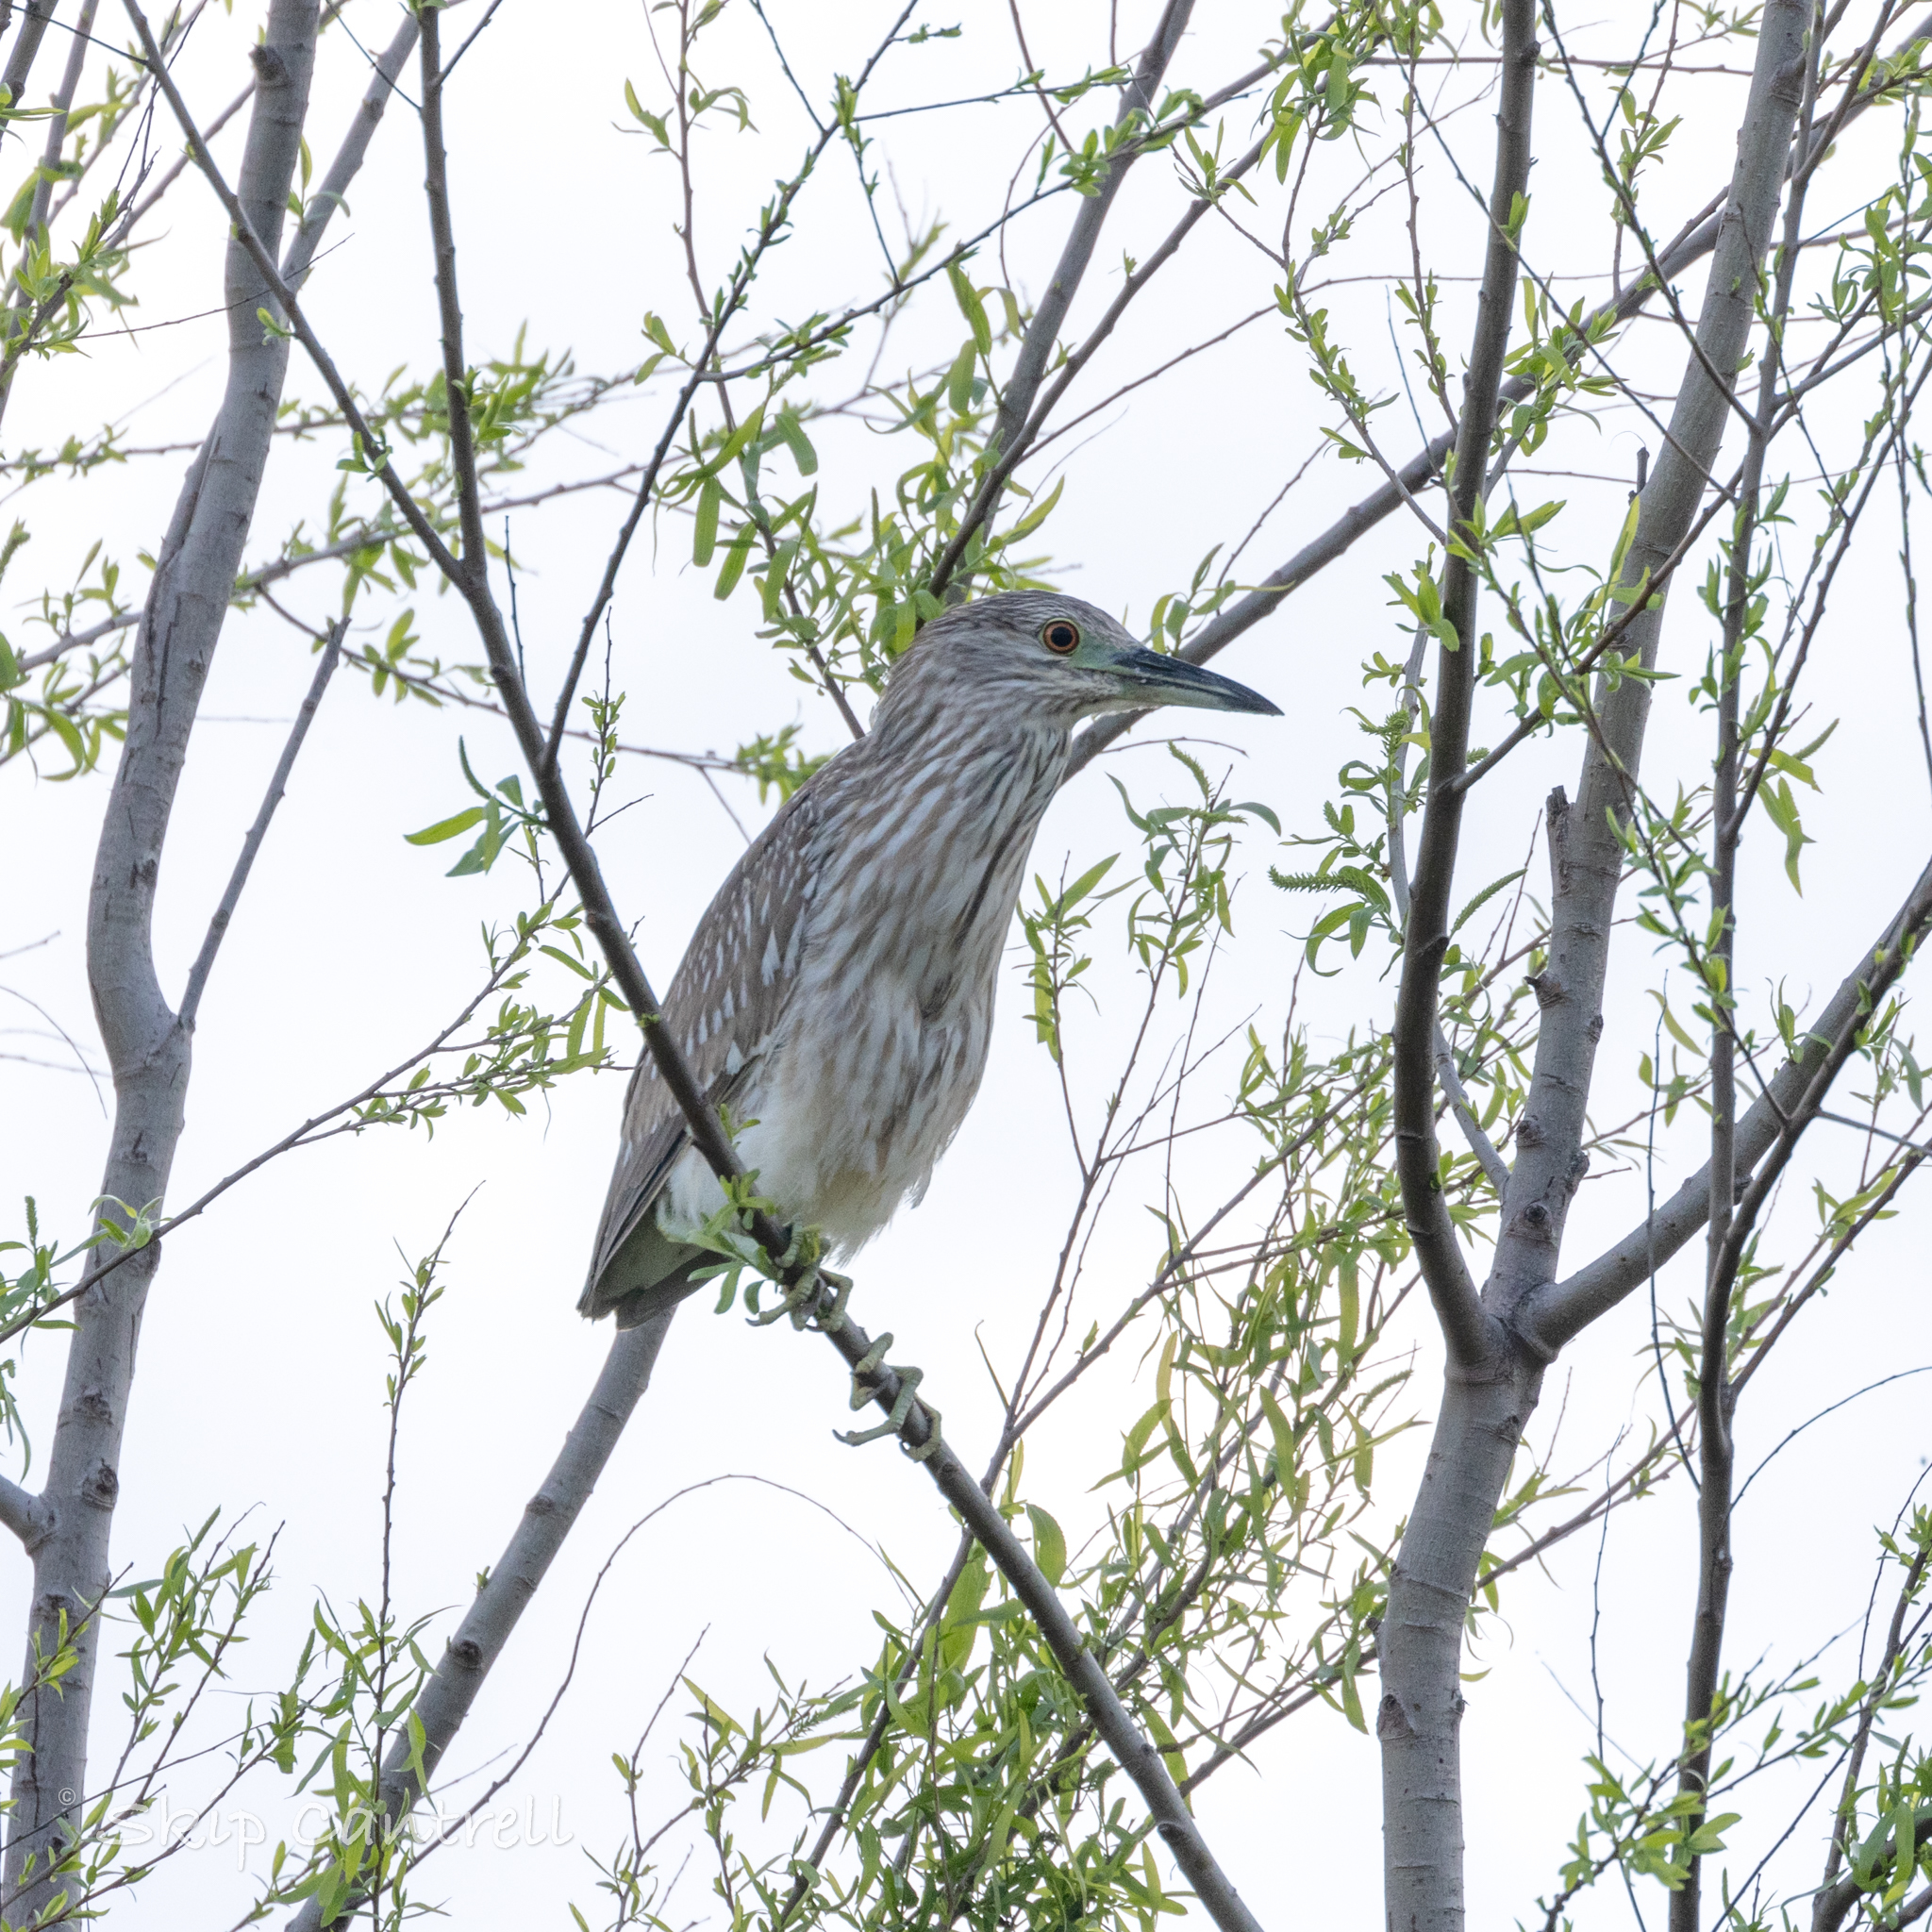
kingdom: Animalia
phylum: Chordata
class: Aves
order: Pelecaniformes
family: Ardeidae
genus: Nycticorax
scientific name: Nycticorax nycticorax
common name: Black-crowned night heron
